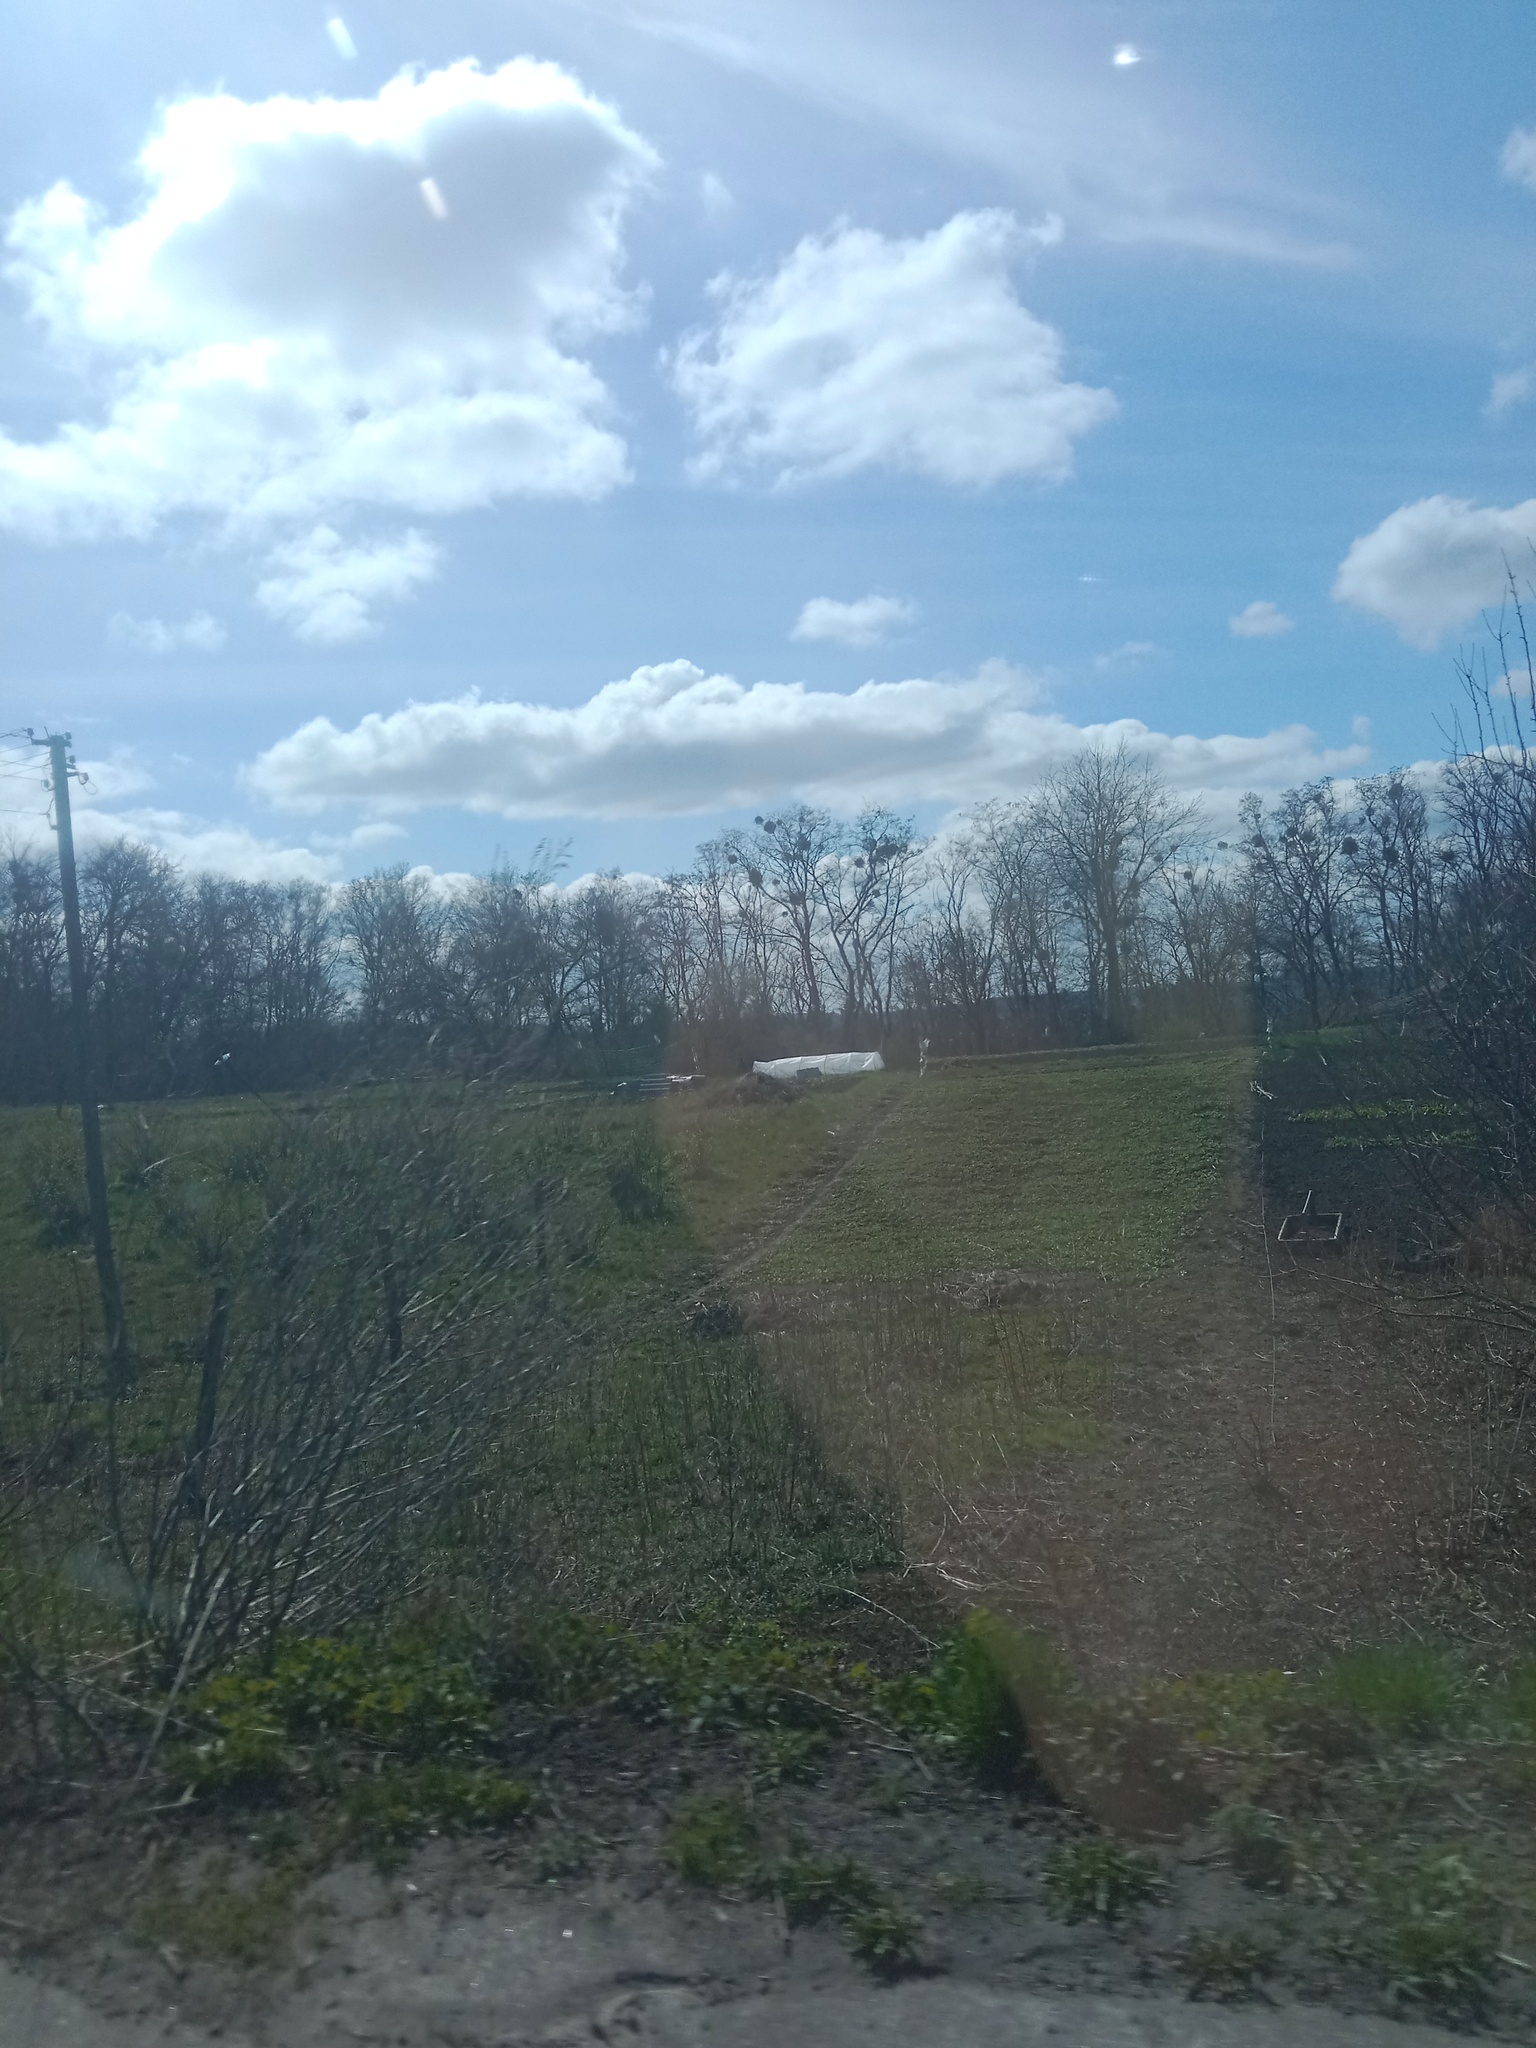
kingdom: Plantae
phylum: Tracheophyta
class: Magnoliopsida
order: Santalales
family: Viscaceae
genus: Viscum
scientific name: Viscum album
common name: Mistletoe
